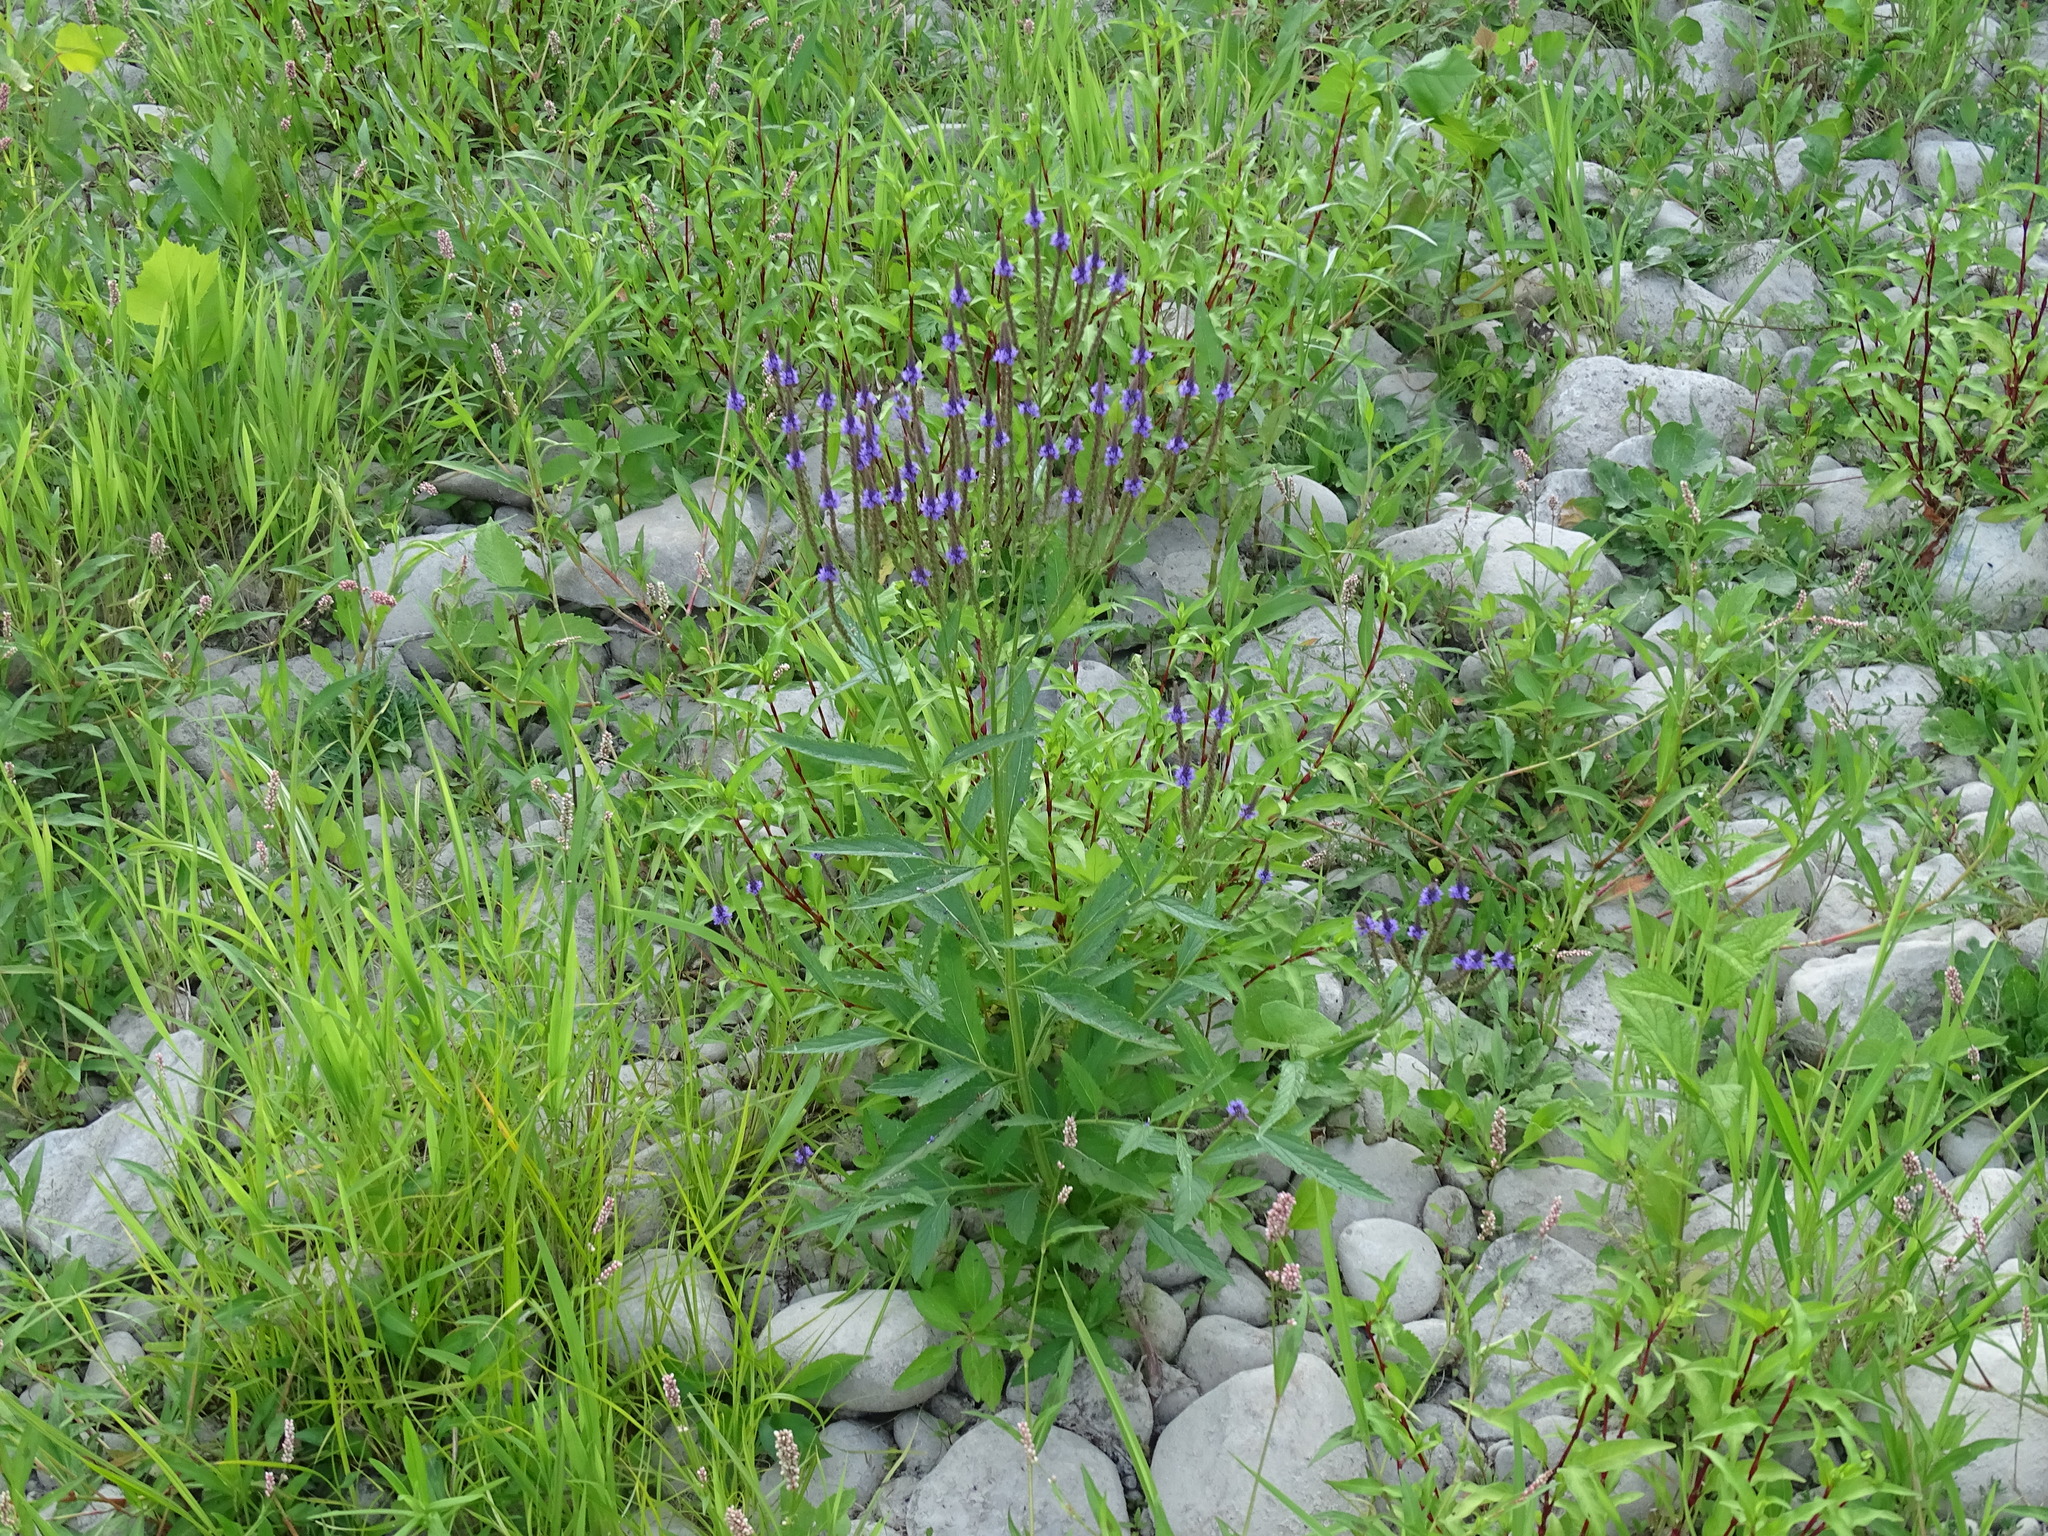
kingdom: Plantae
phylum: Tracheophyta
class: Magnoliopsida
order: Lamiales
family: Verbenaceae
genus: Verbena
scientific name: Verbena hastata
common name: American blue vervain
